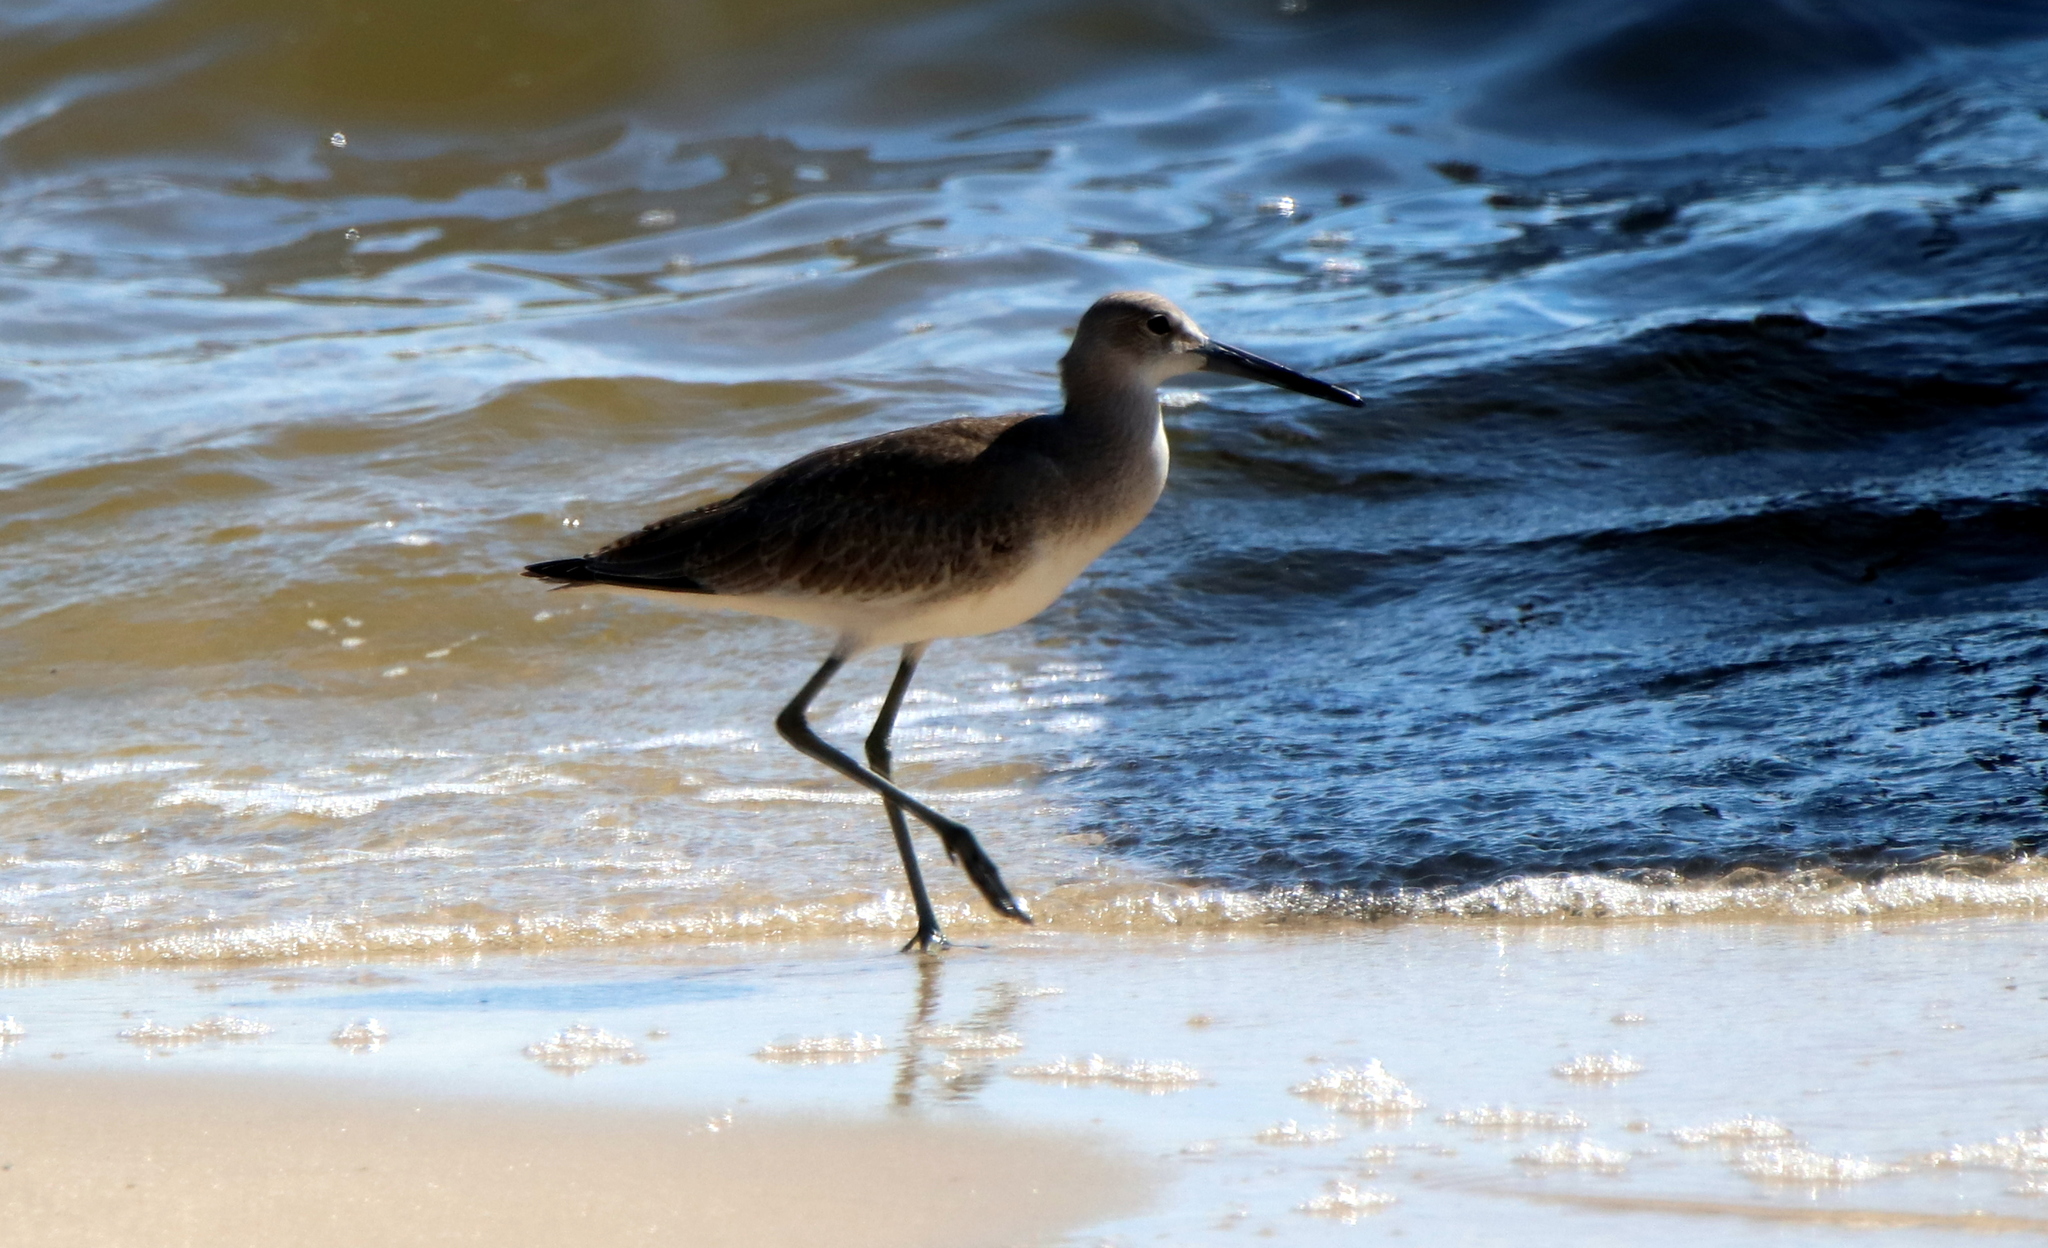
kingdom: Animalia
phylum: Chordata
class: Aves
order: Charadriiformes
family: Scolopacidae
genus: Tringa
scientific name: Tringa semipalmata
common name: Willet
